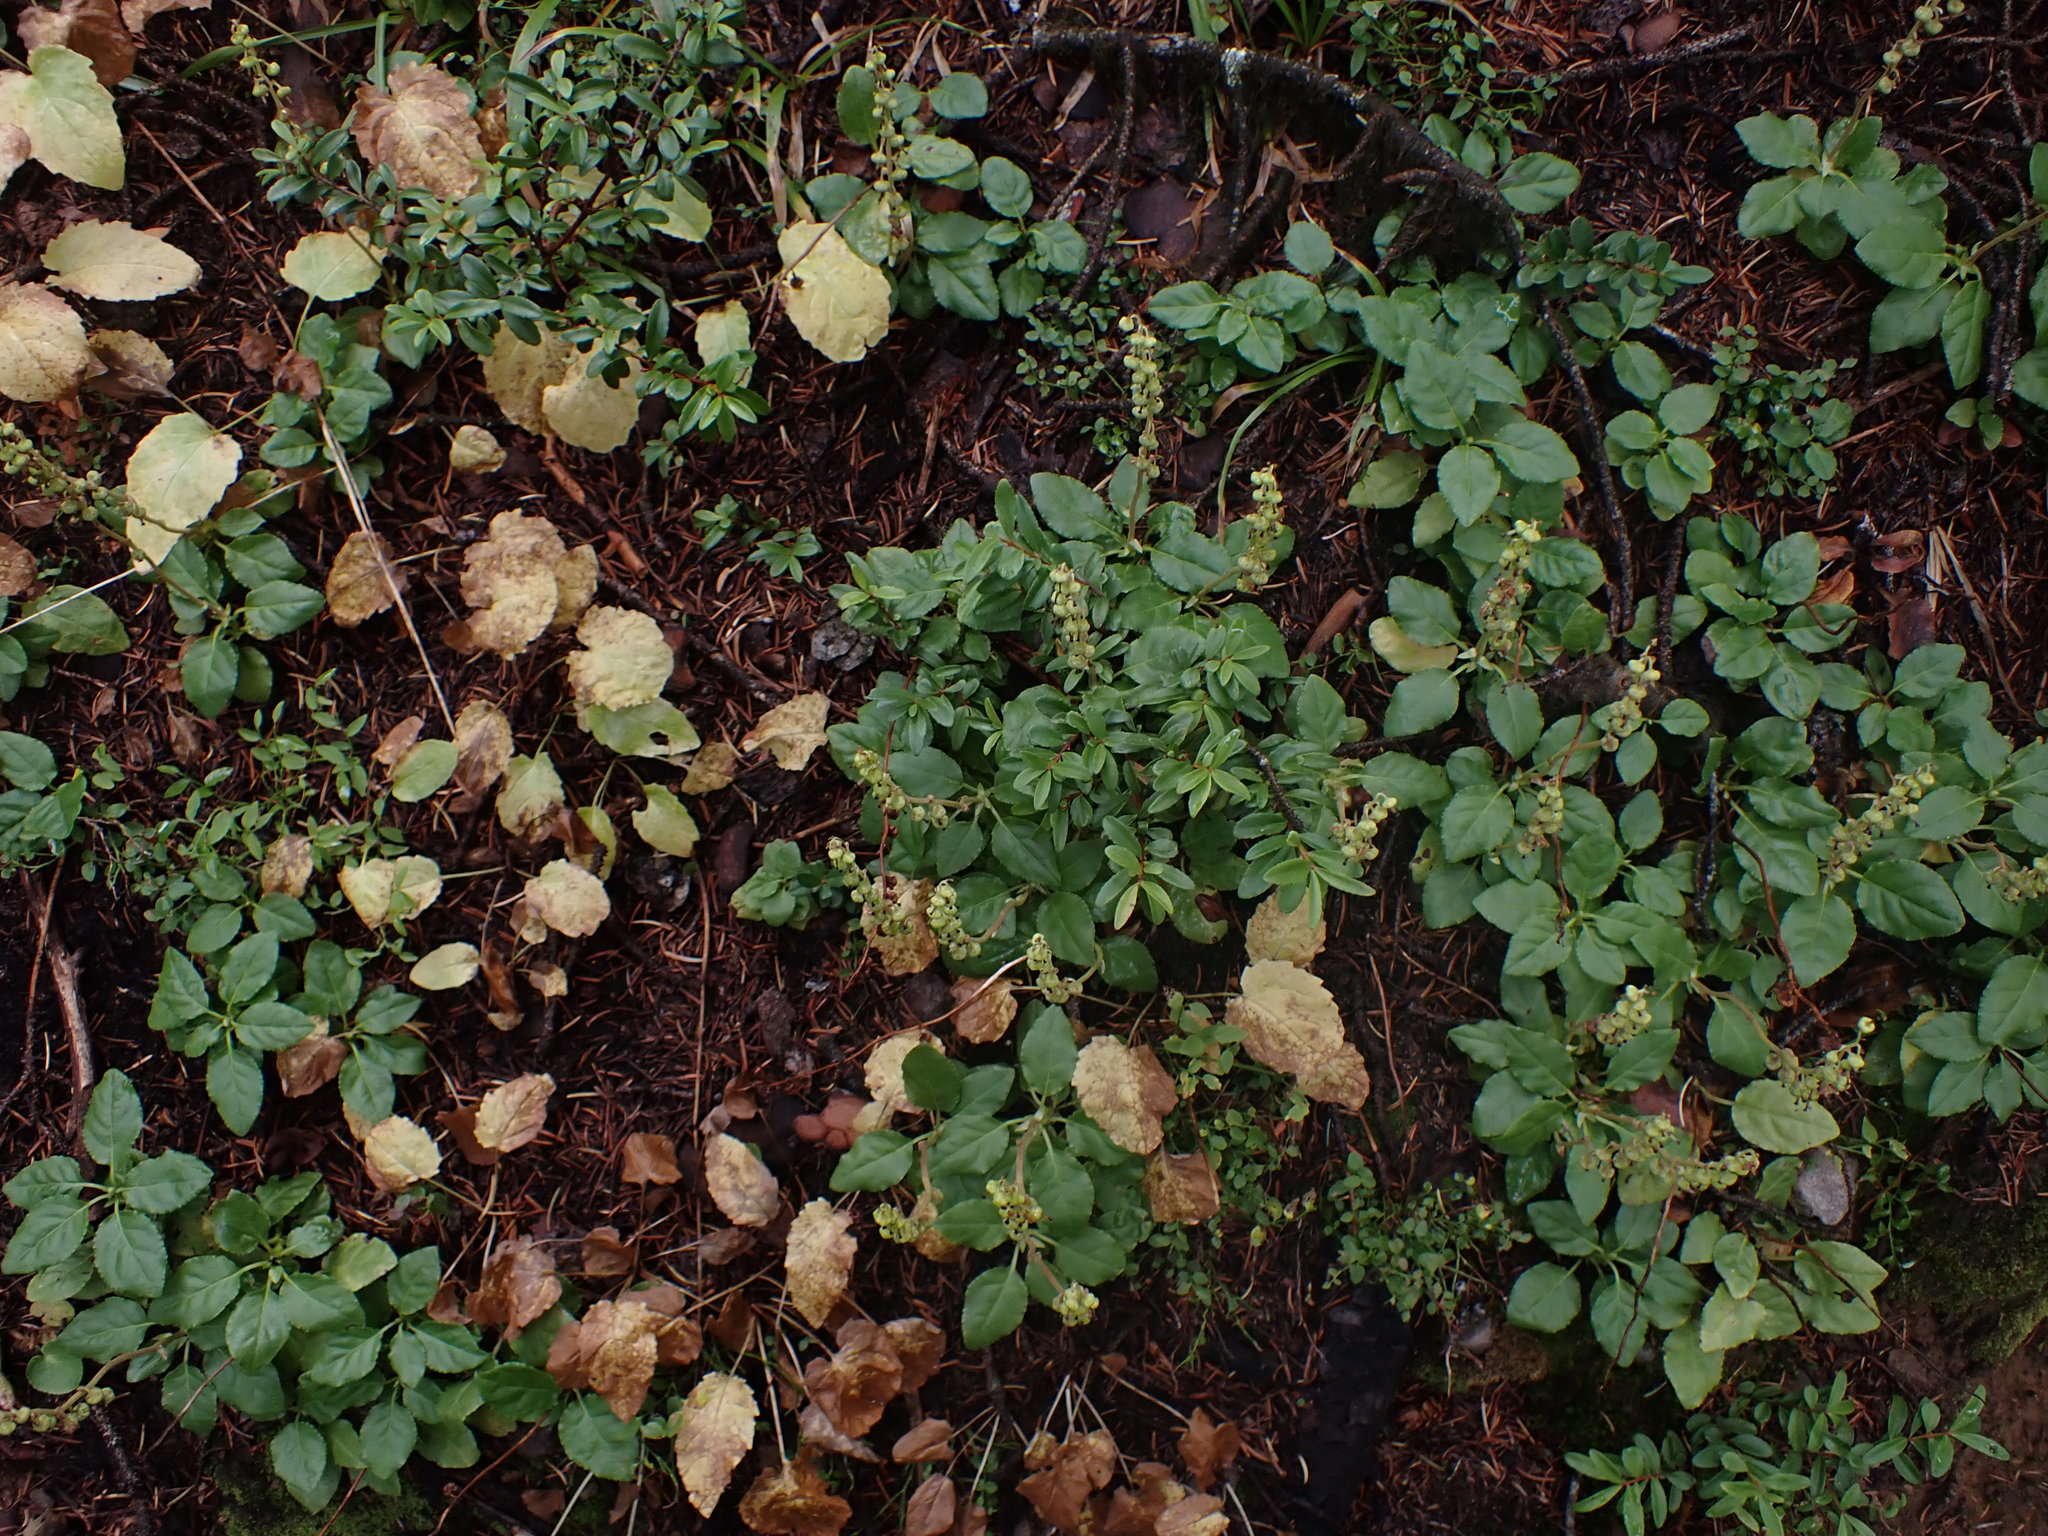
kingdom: Plantae
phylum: Tracheophyta
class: Magnoliopsida
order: Ericales
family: Ericaceae
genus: Orthilia
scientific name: Orthilia secunda
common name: One-sided orthilia
